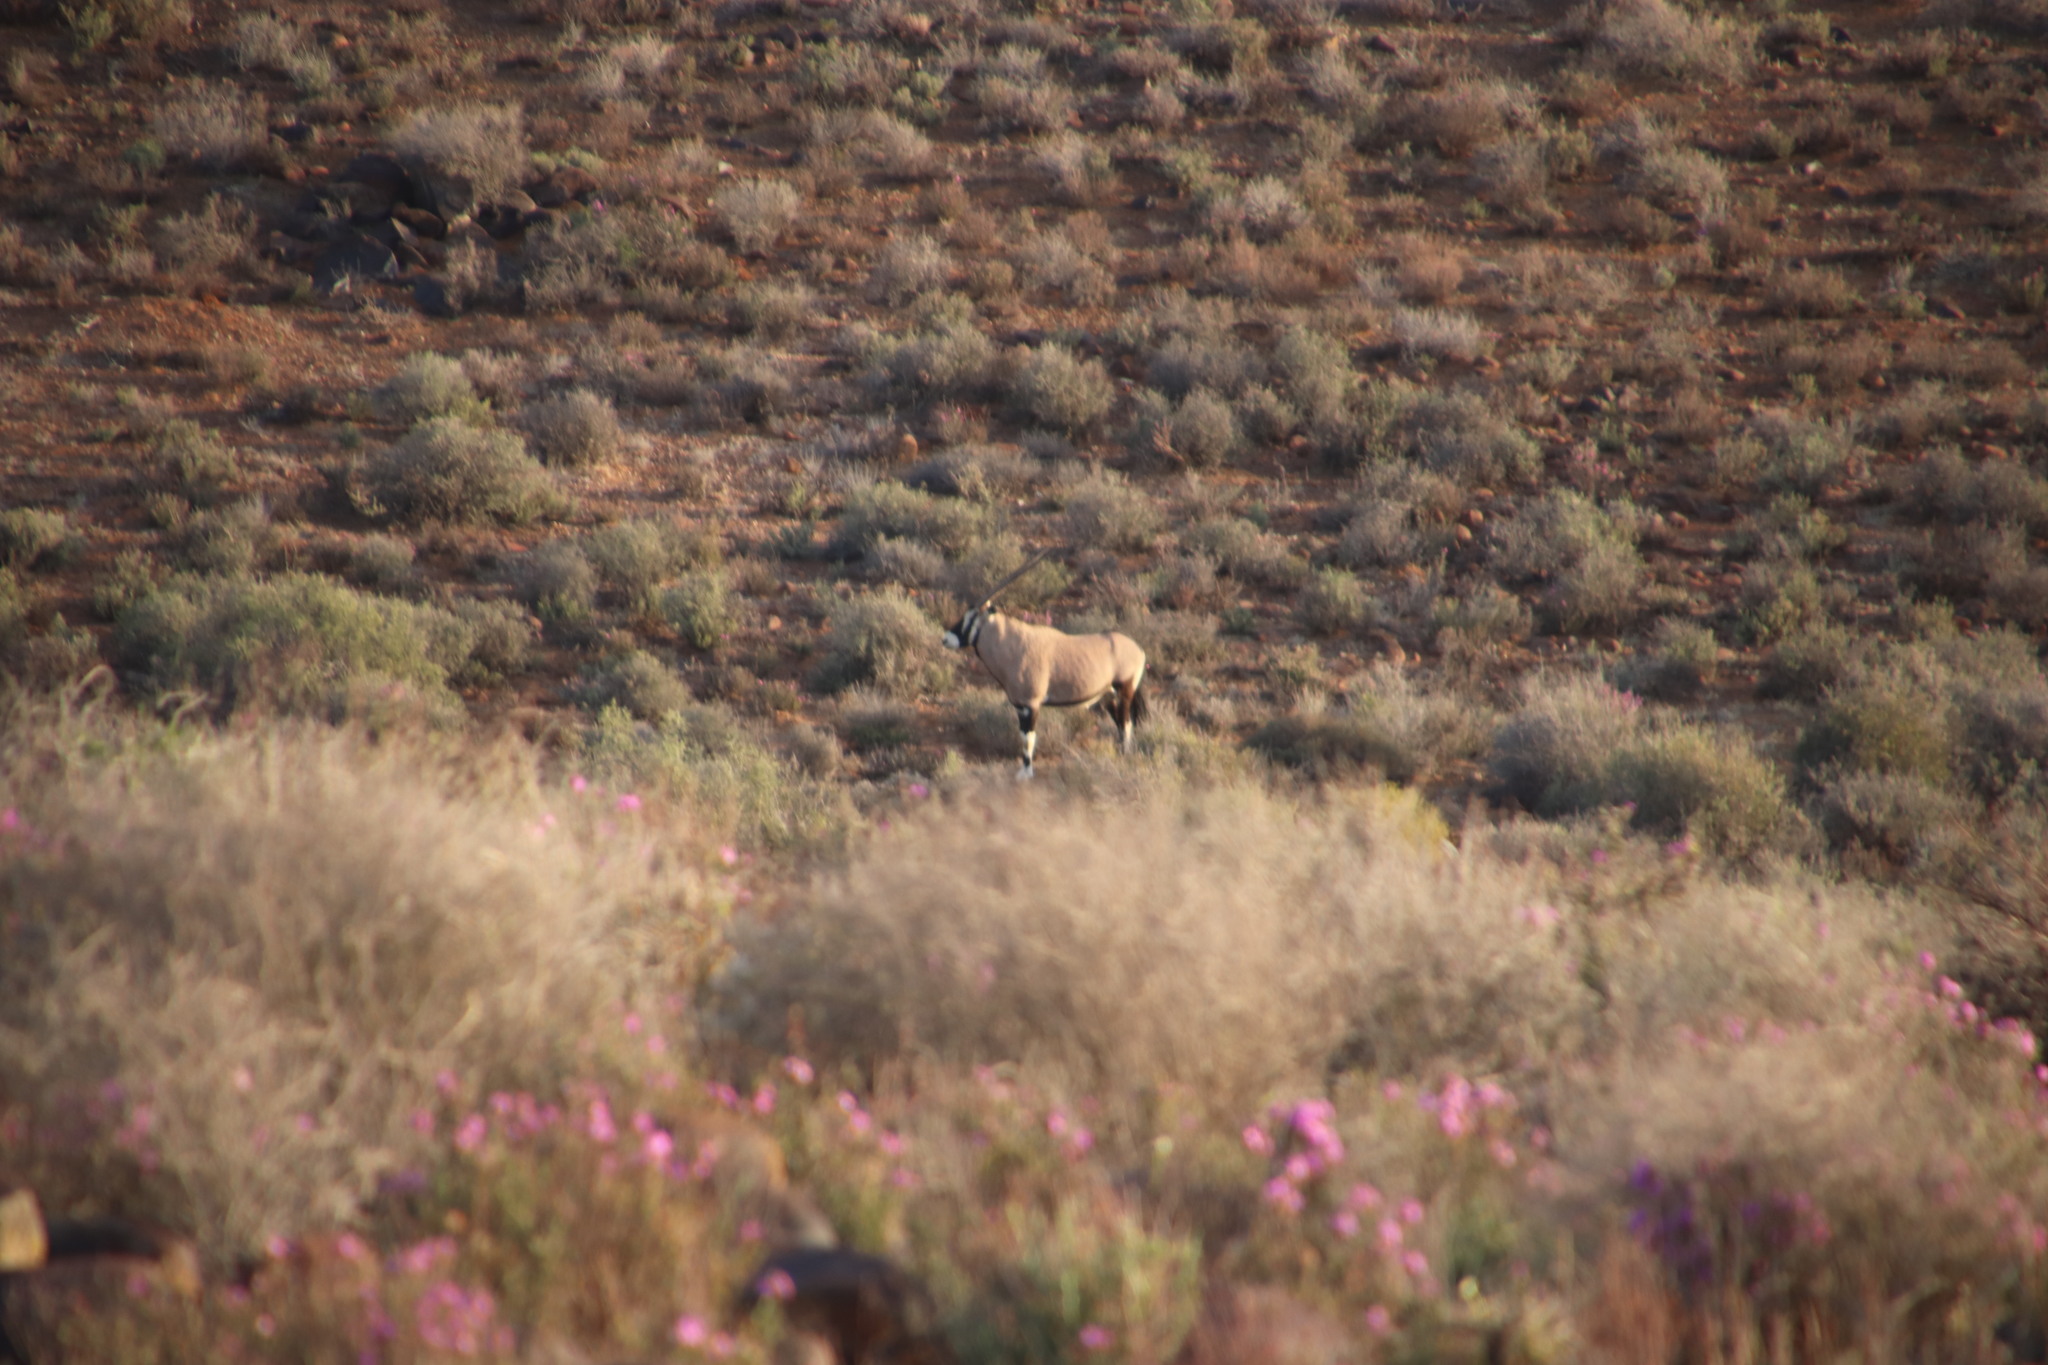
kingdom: Animalia
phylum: Chordata
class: Mammalia
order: Artiodactyla
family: Bovidae
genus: Oryx
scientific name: Oryx gazella
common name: Gemsbok
